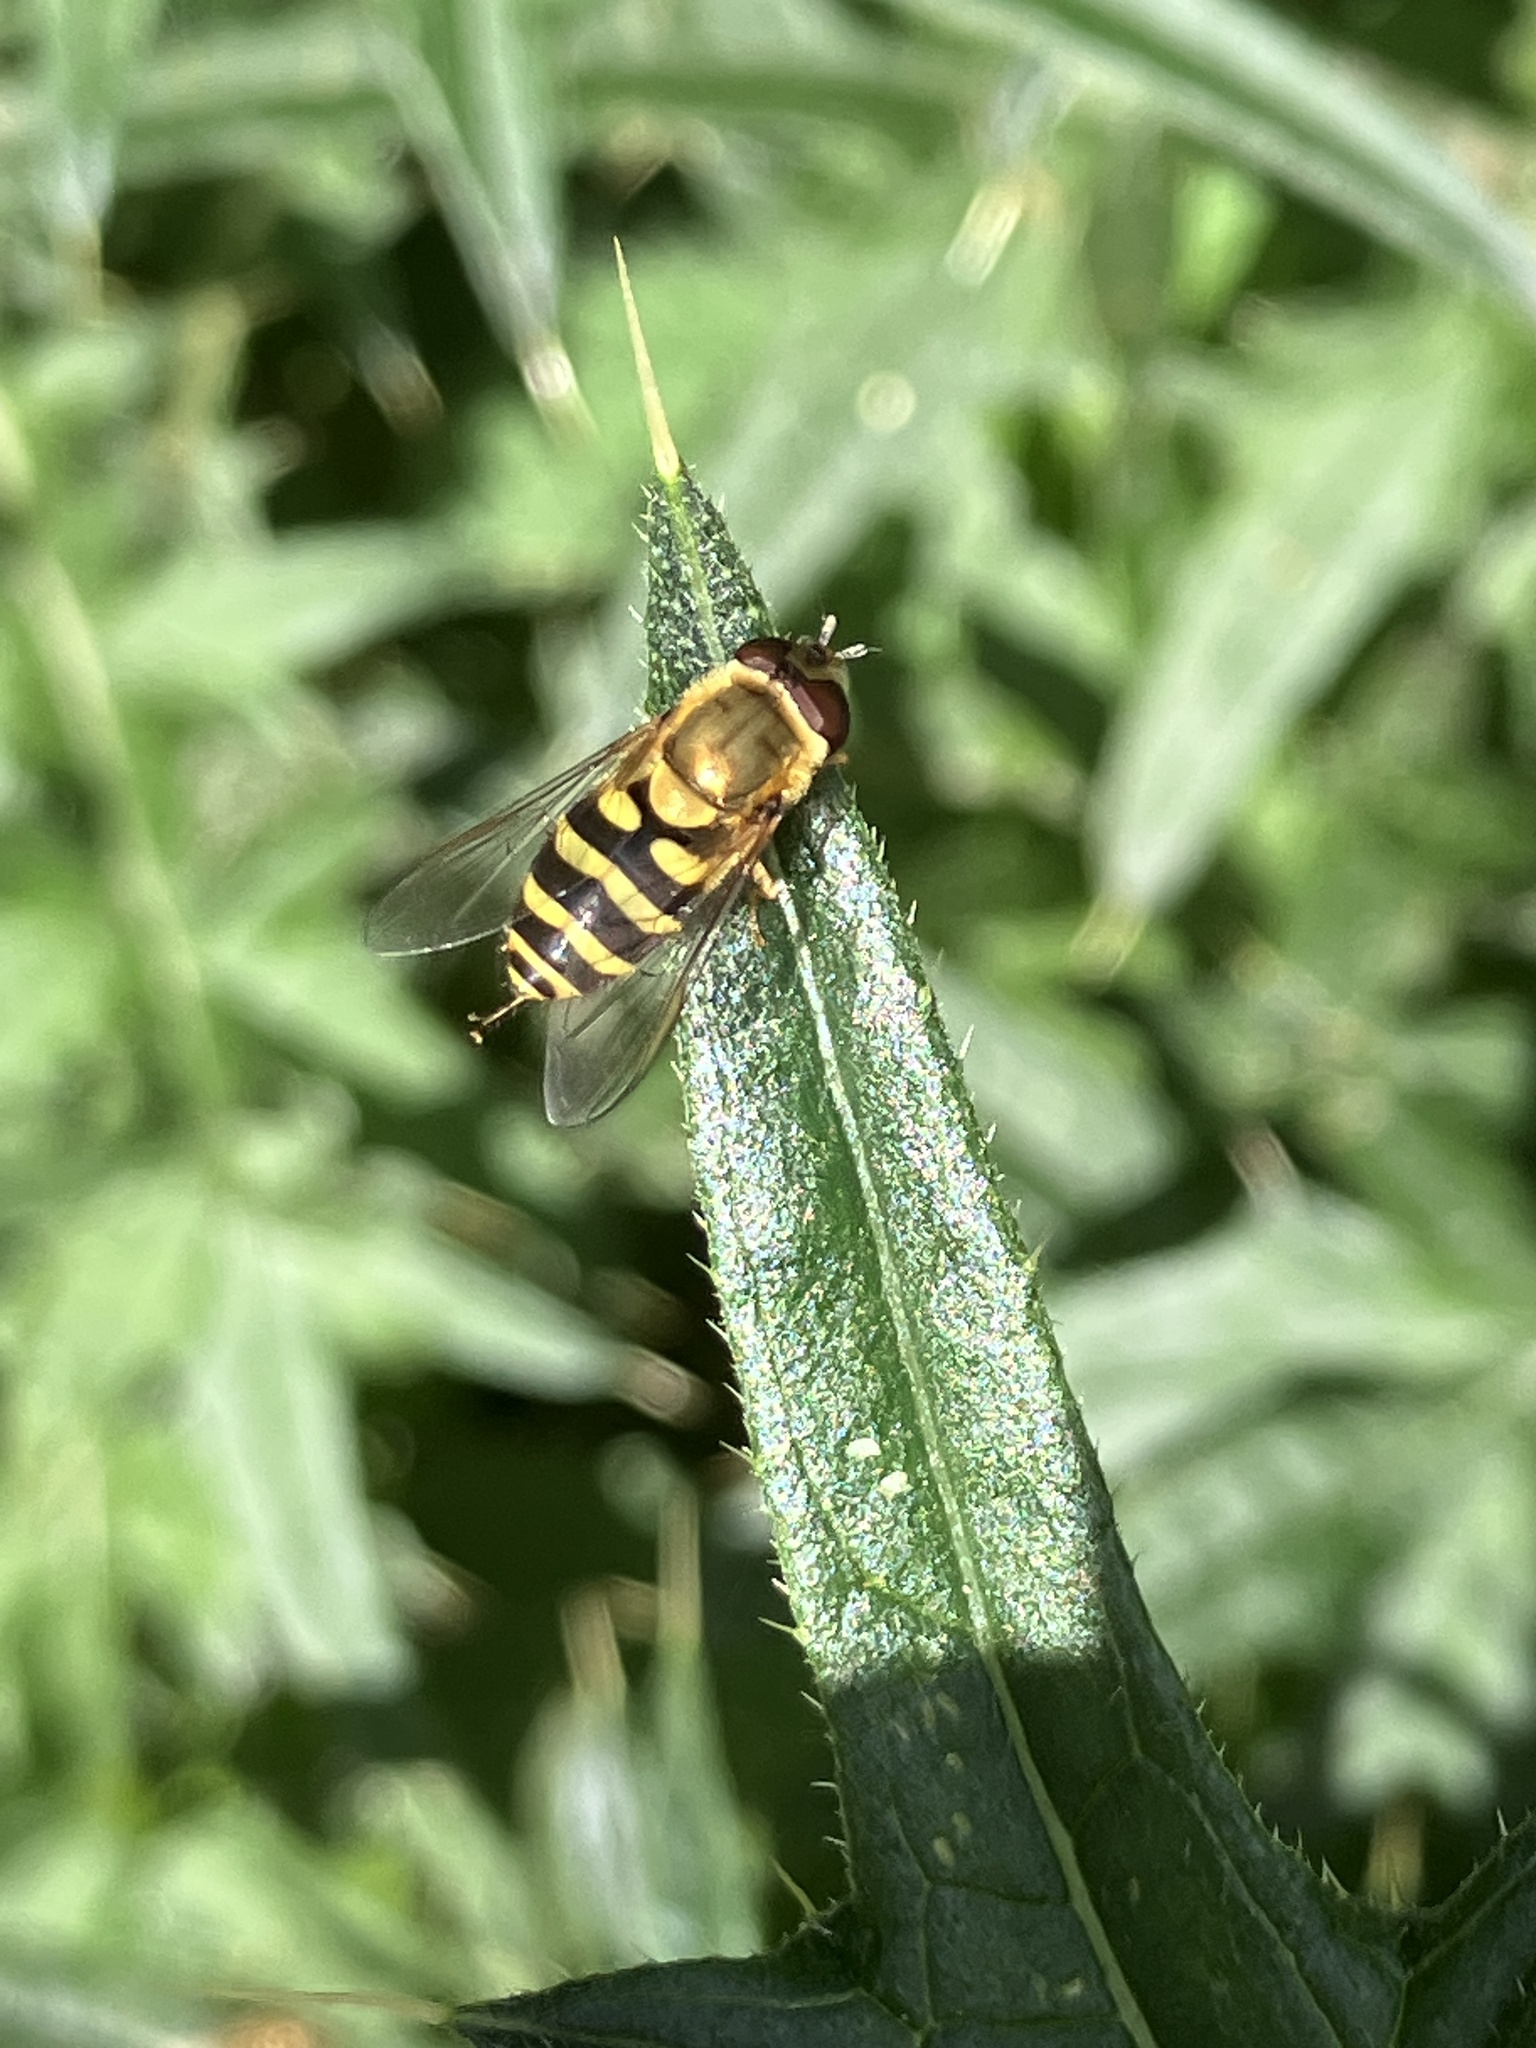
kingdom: Animalia
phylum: Arthropoda
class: Insecta
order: Diptera
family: Syrphidae
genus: Syrphus
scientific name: Syrphus
